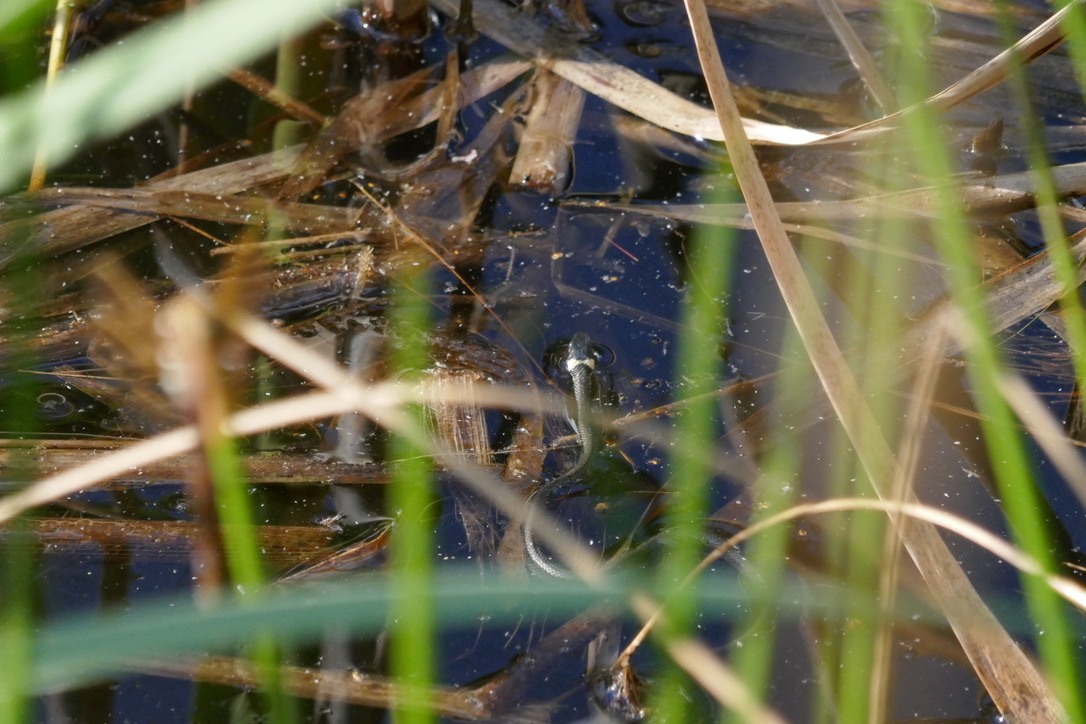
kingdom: Animalia
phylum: Chordata
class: Squamata
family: Colubridae
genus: Natrix
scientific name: Natrix natrix
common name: Grass snake
